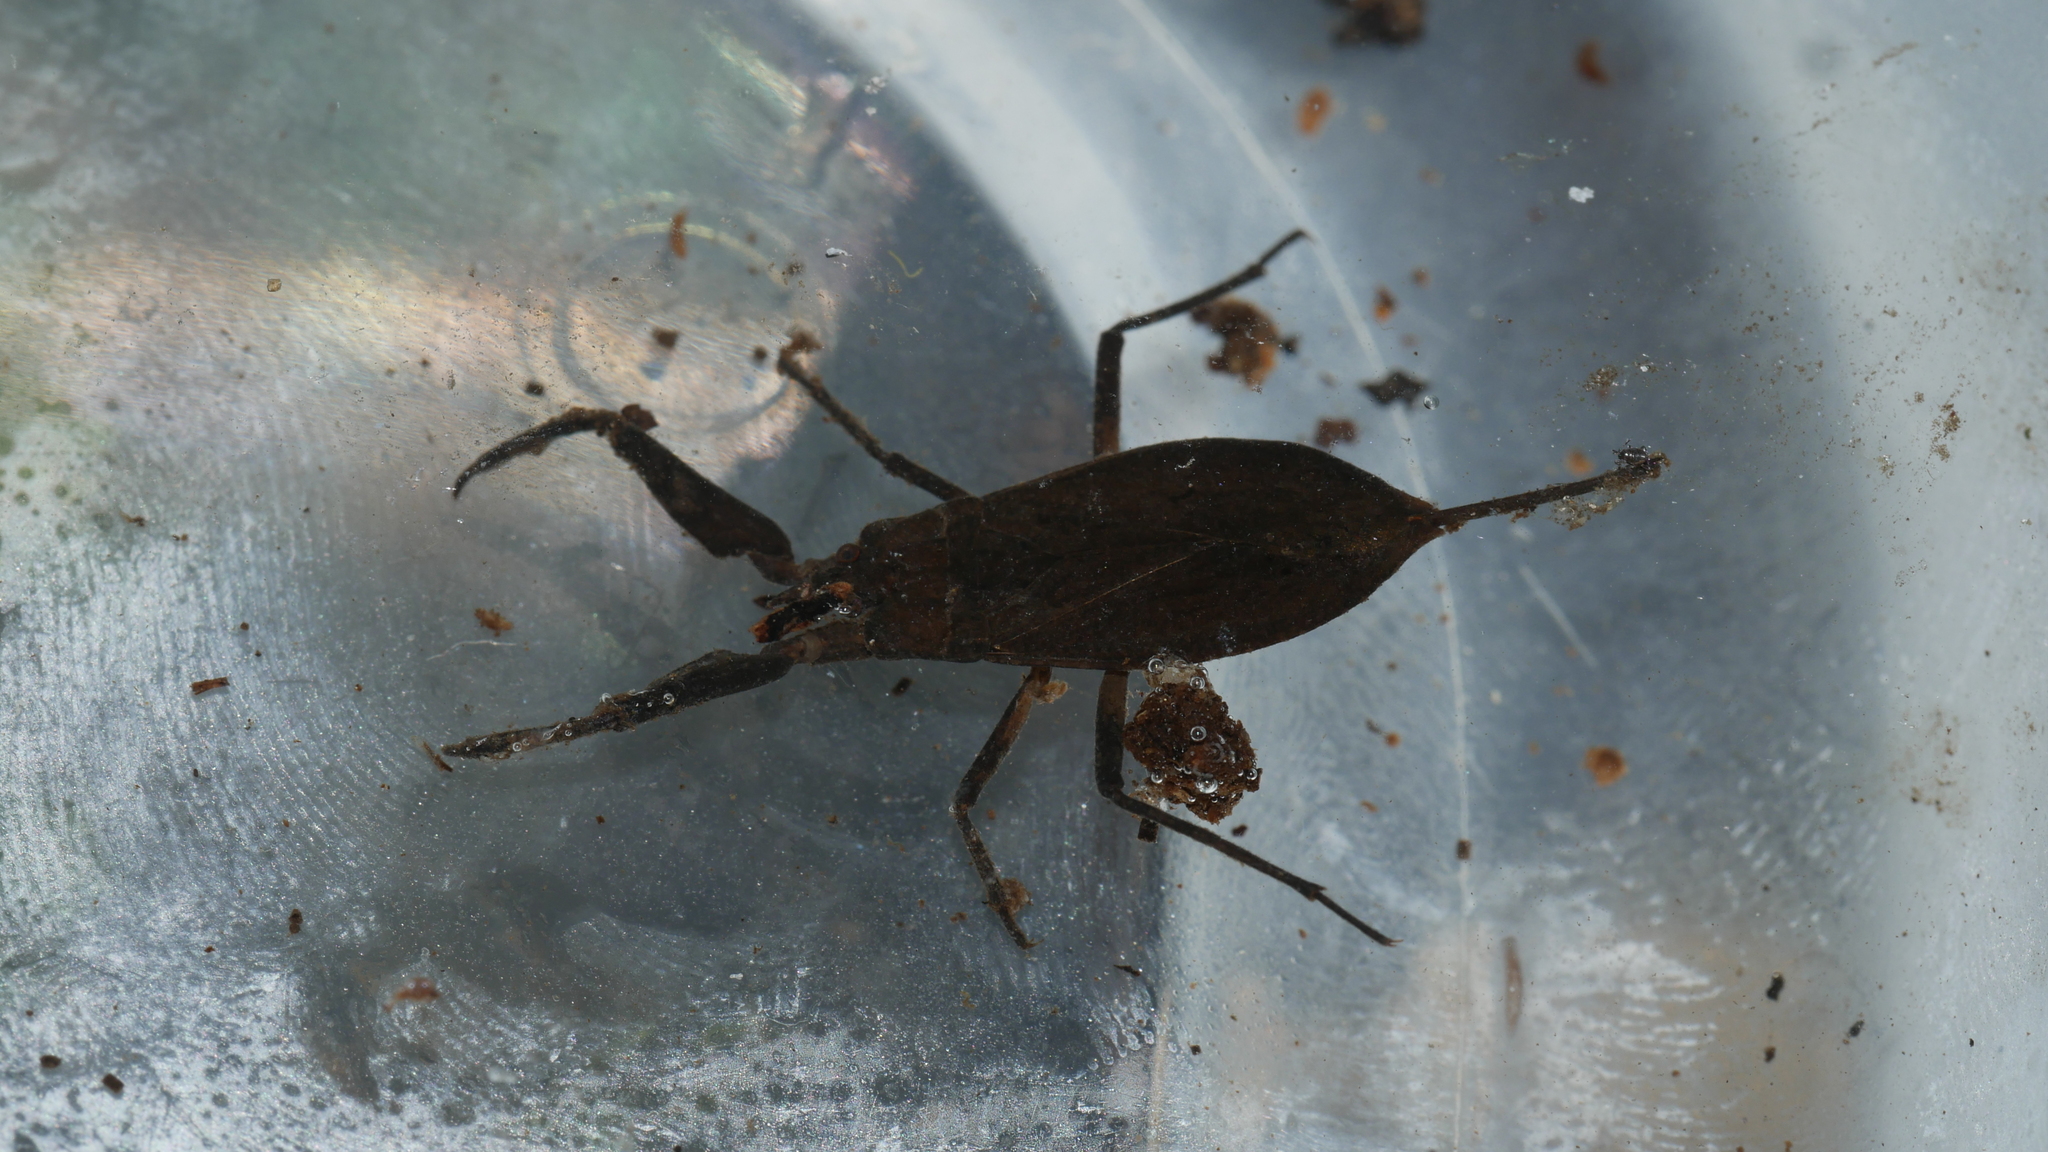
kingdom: Animalia
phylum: Arthropoda
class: Insecta
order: Hemiptera
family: Nepidae
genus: Nepa
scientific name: Nepa apiculata
